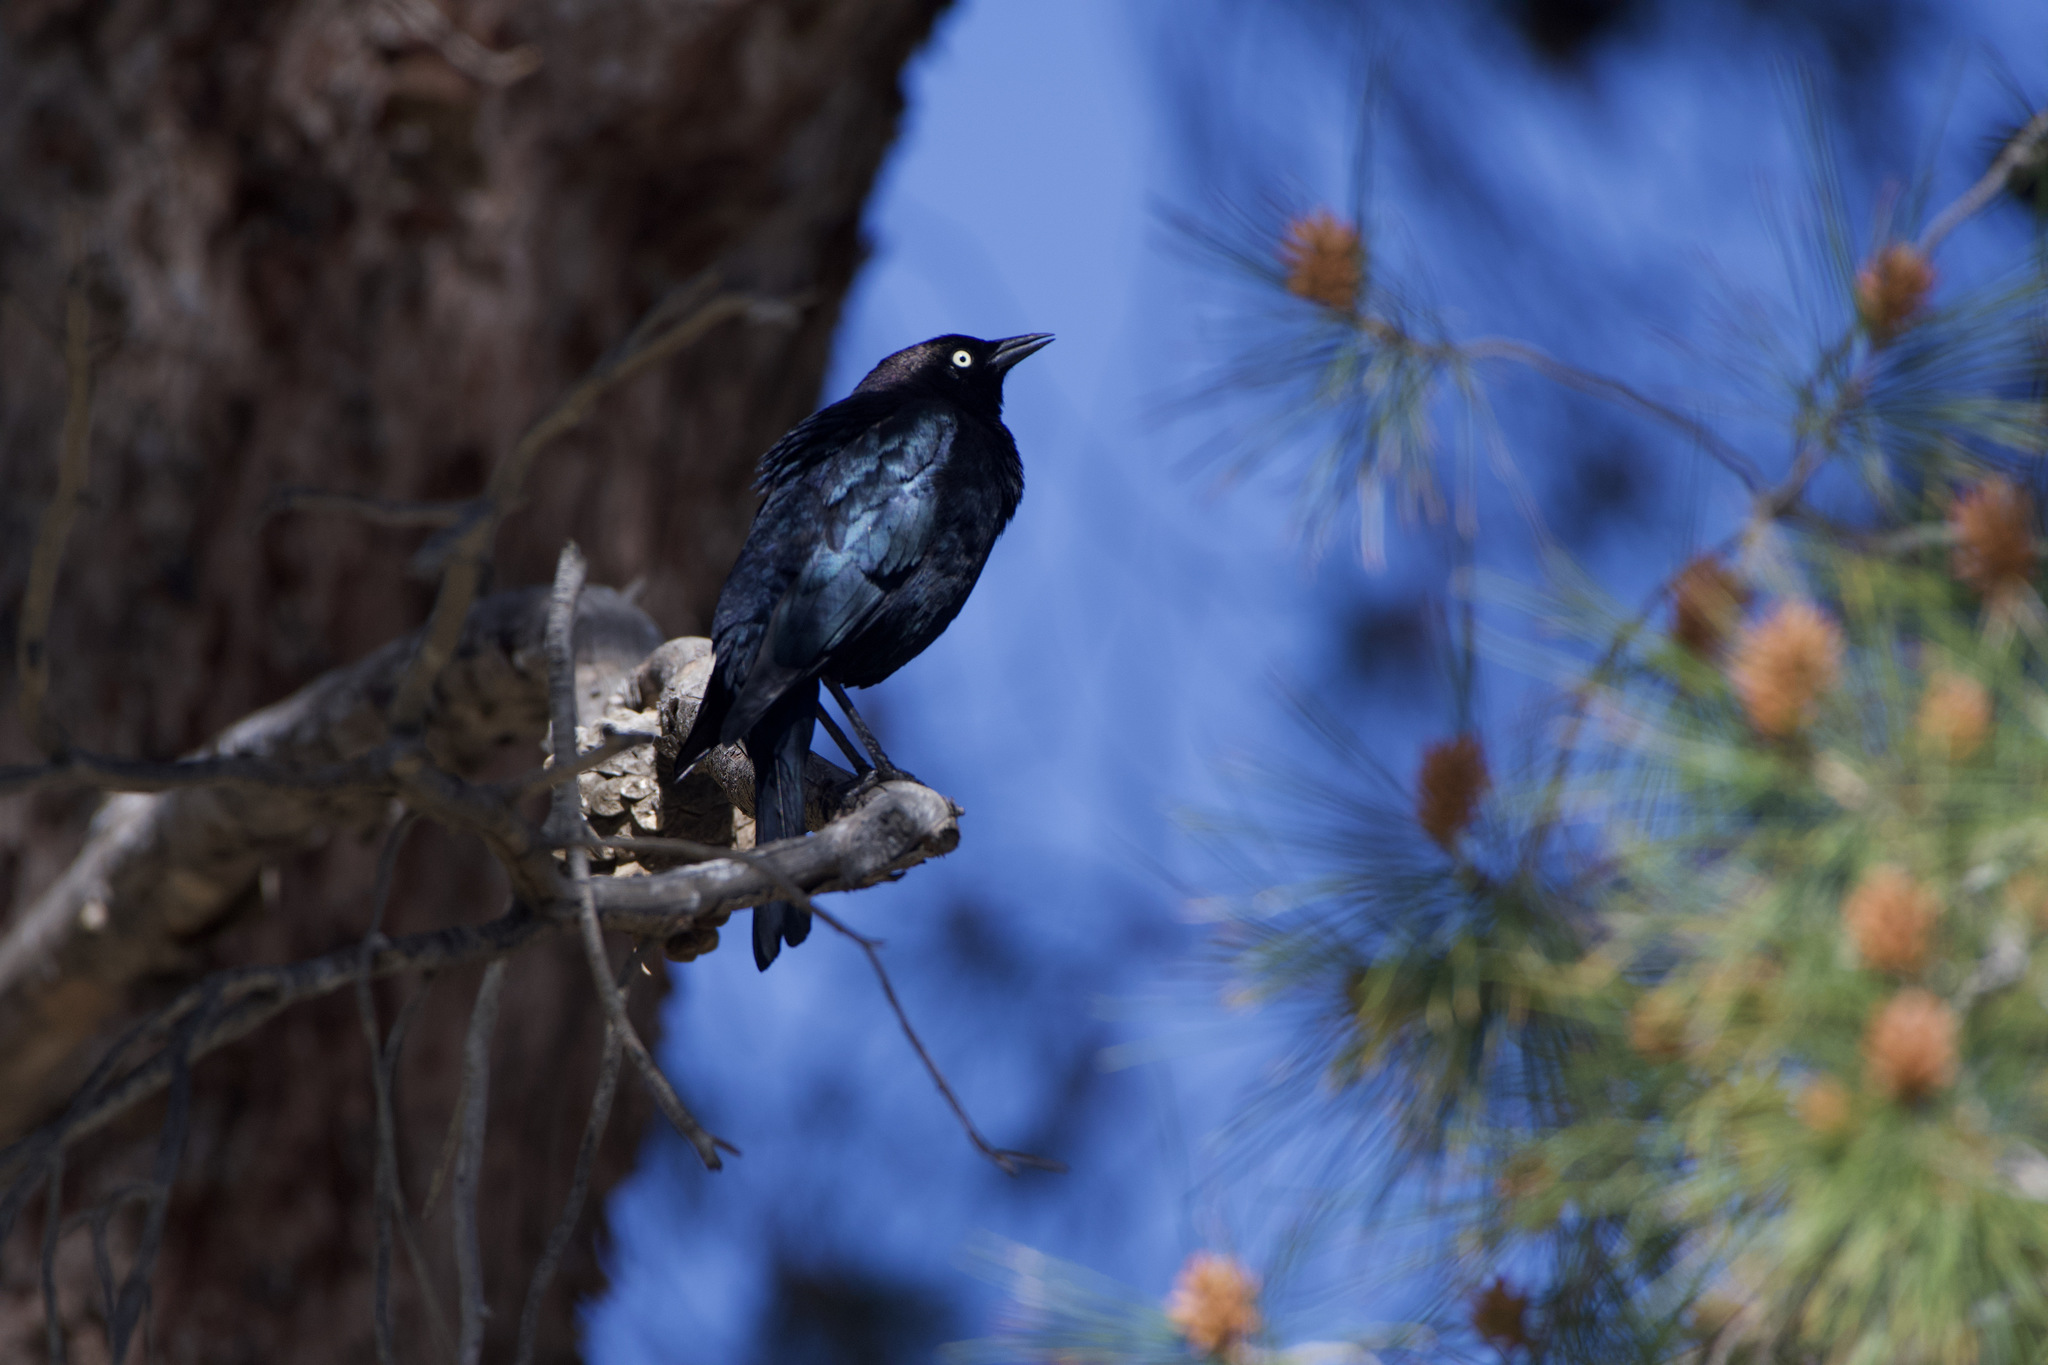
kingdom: Animalia
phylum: Chordata
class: Aves
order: Passeriformes
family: Icteridae
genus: Euphagus
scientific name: Euphagus cyanocephalus
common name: Brewer's blackbird
